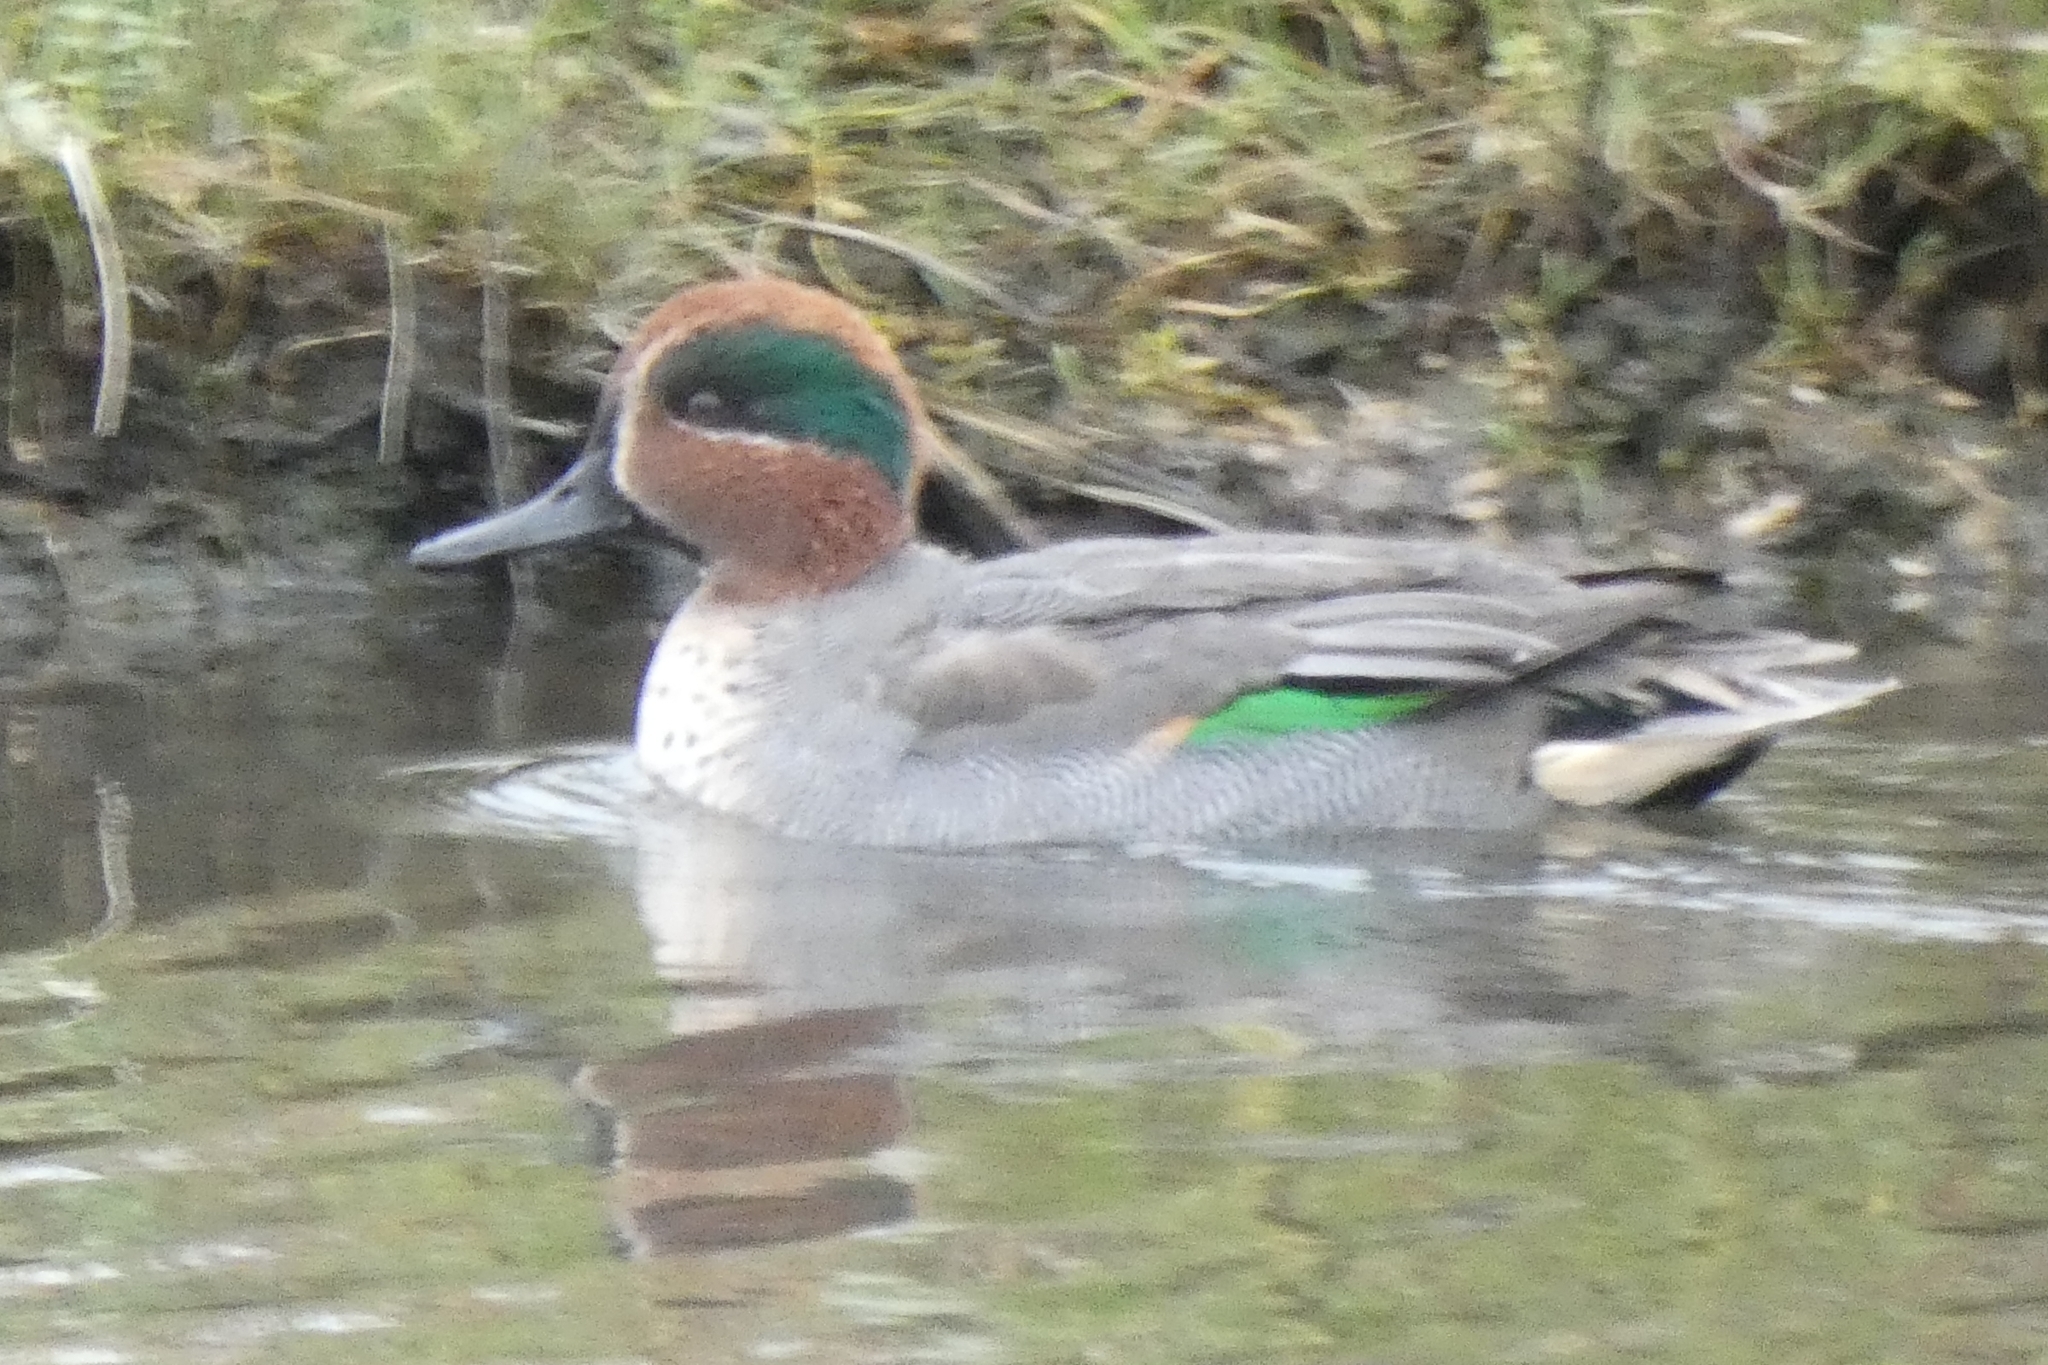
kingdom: Animalia
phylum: Chordata
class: Aves
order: Anseriformes
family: Anatidae
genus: Anas
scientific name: Anas crecca
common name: Eurasian teal
